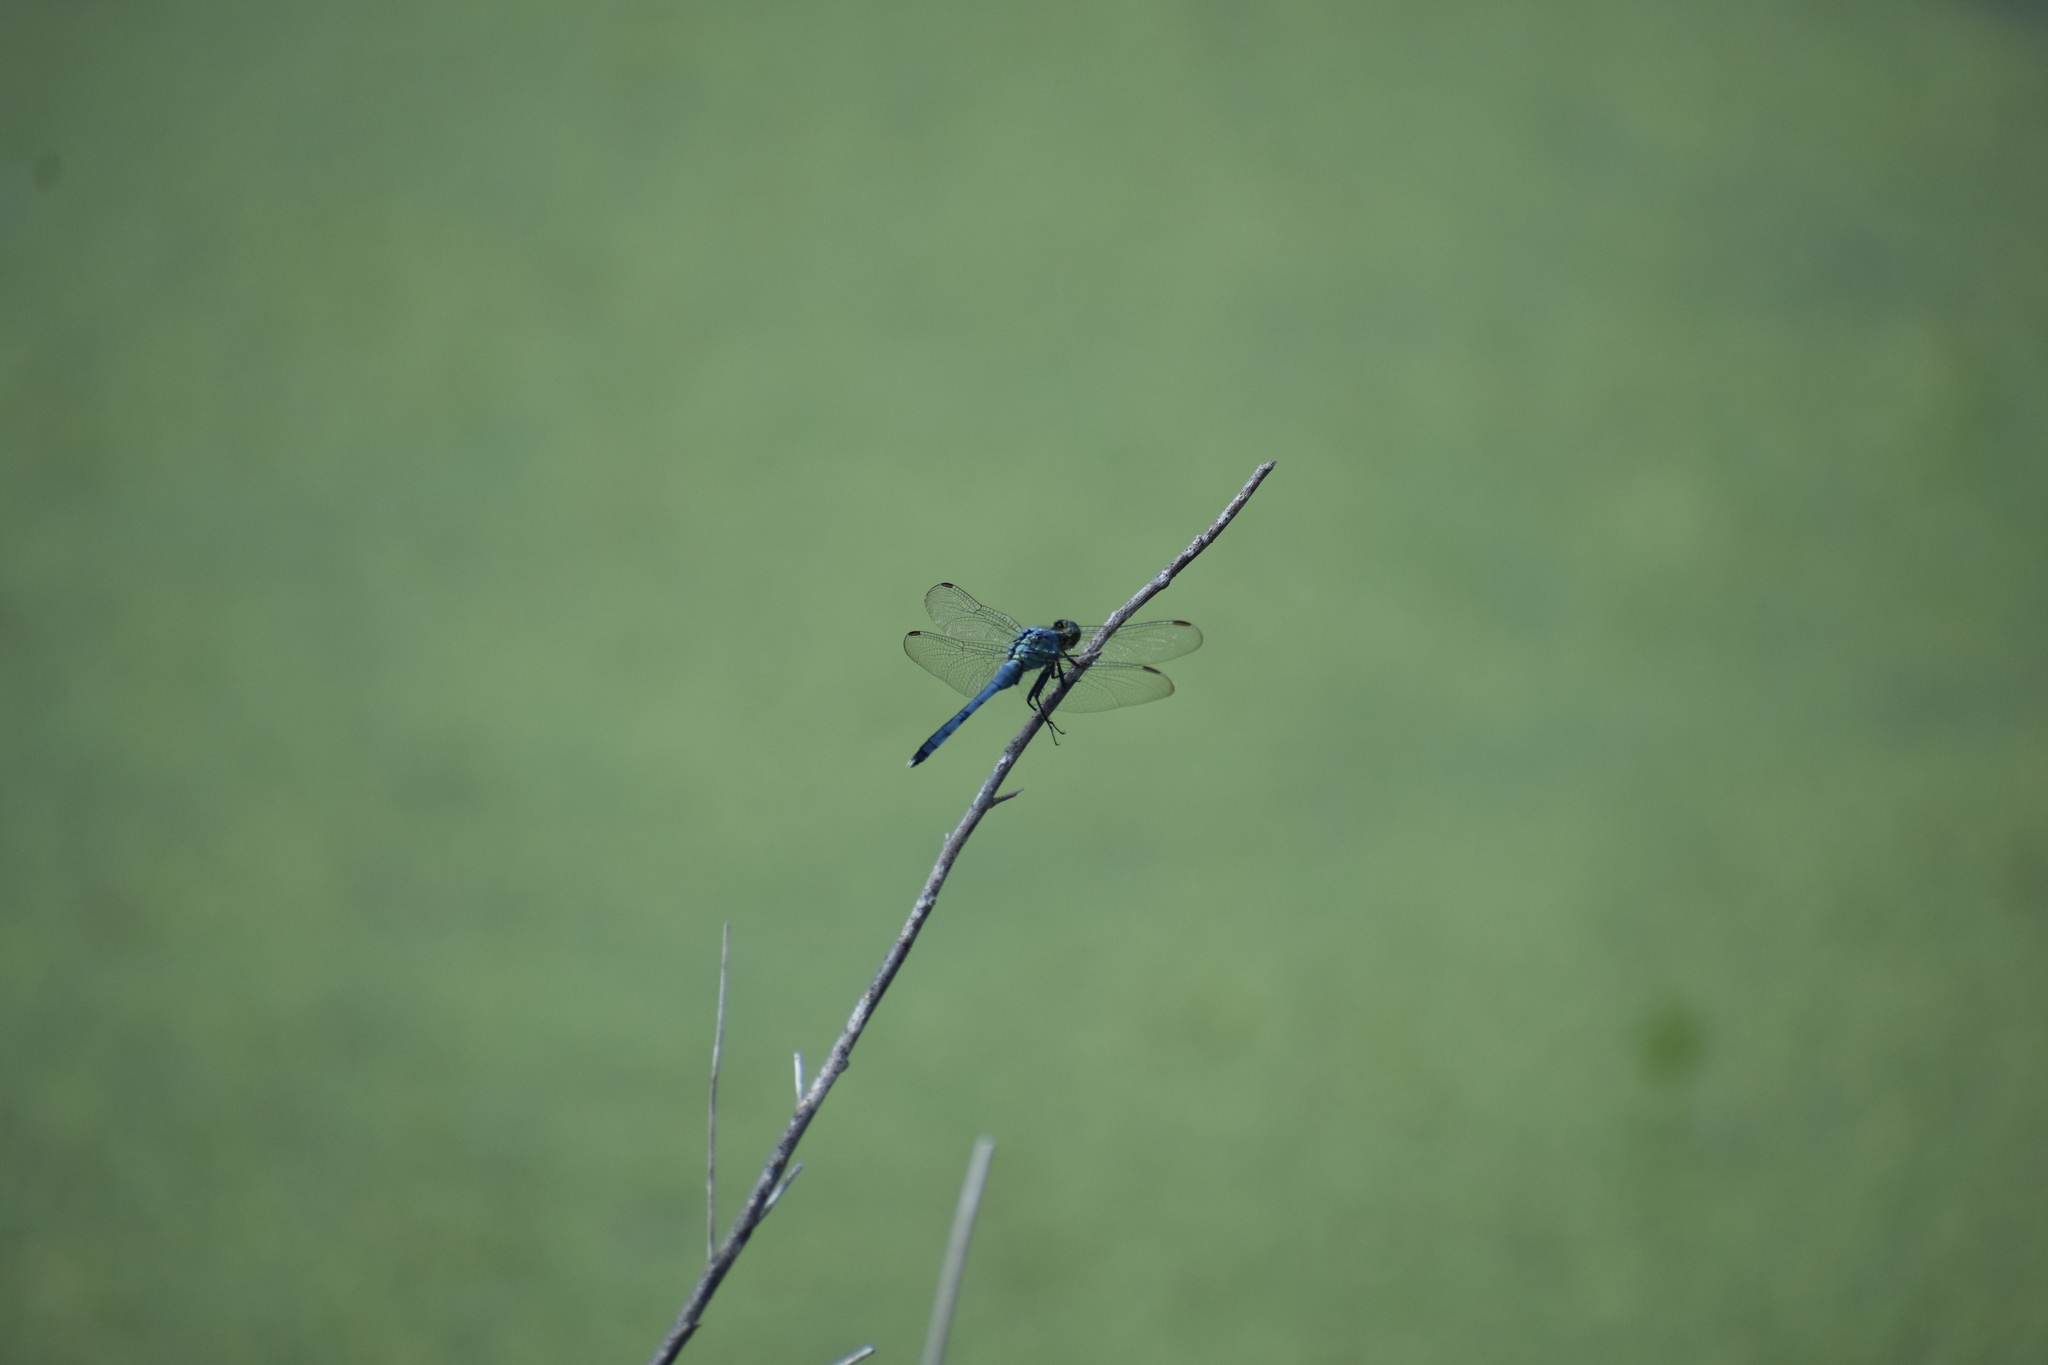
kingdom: Animalia
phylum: Arthropoda
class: Insecta
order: Odonata
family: Libellulidae
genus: Erythemis
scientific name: Erythemis simplicicollis
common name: Eastern pondhawk
